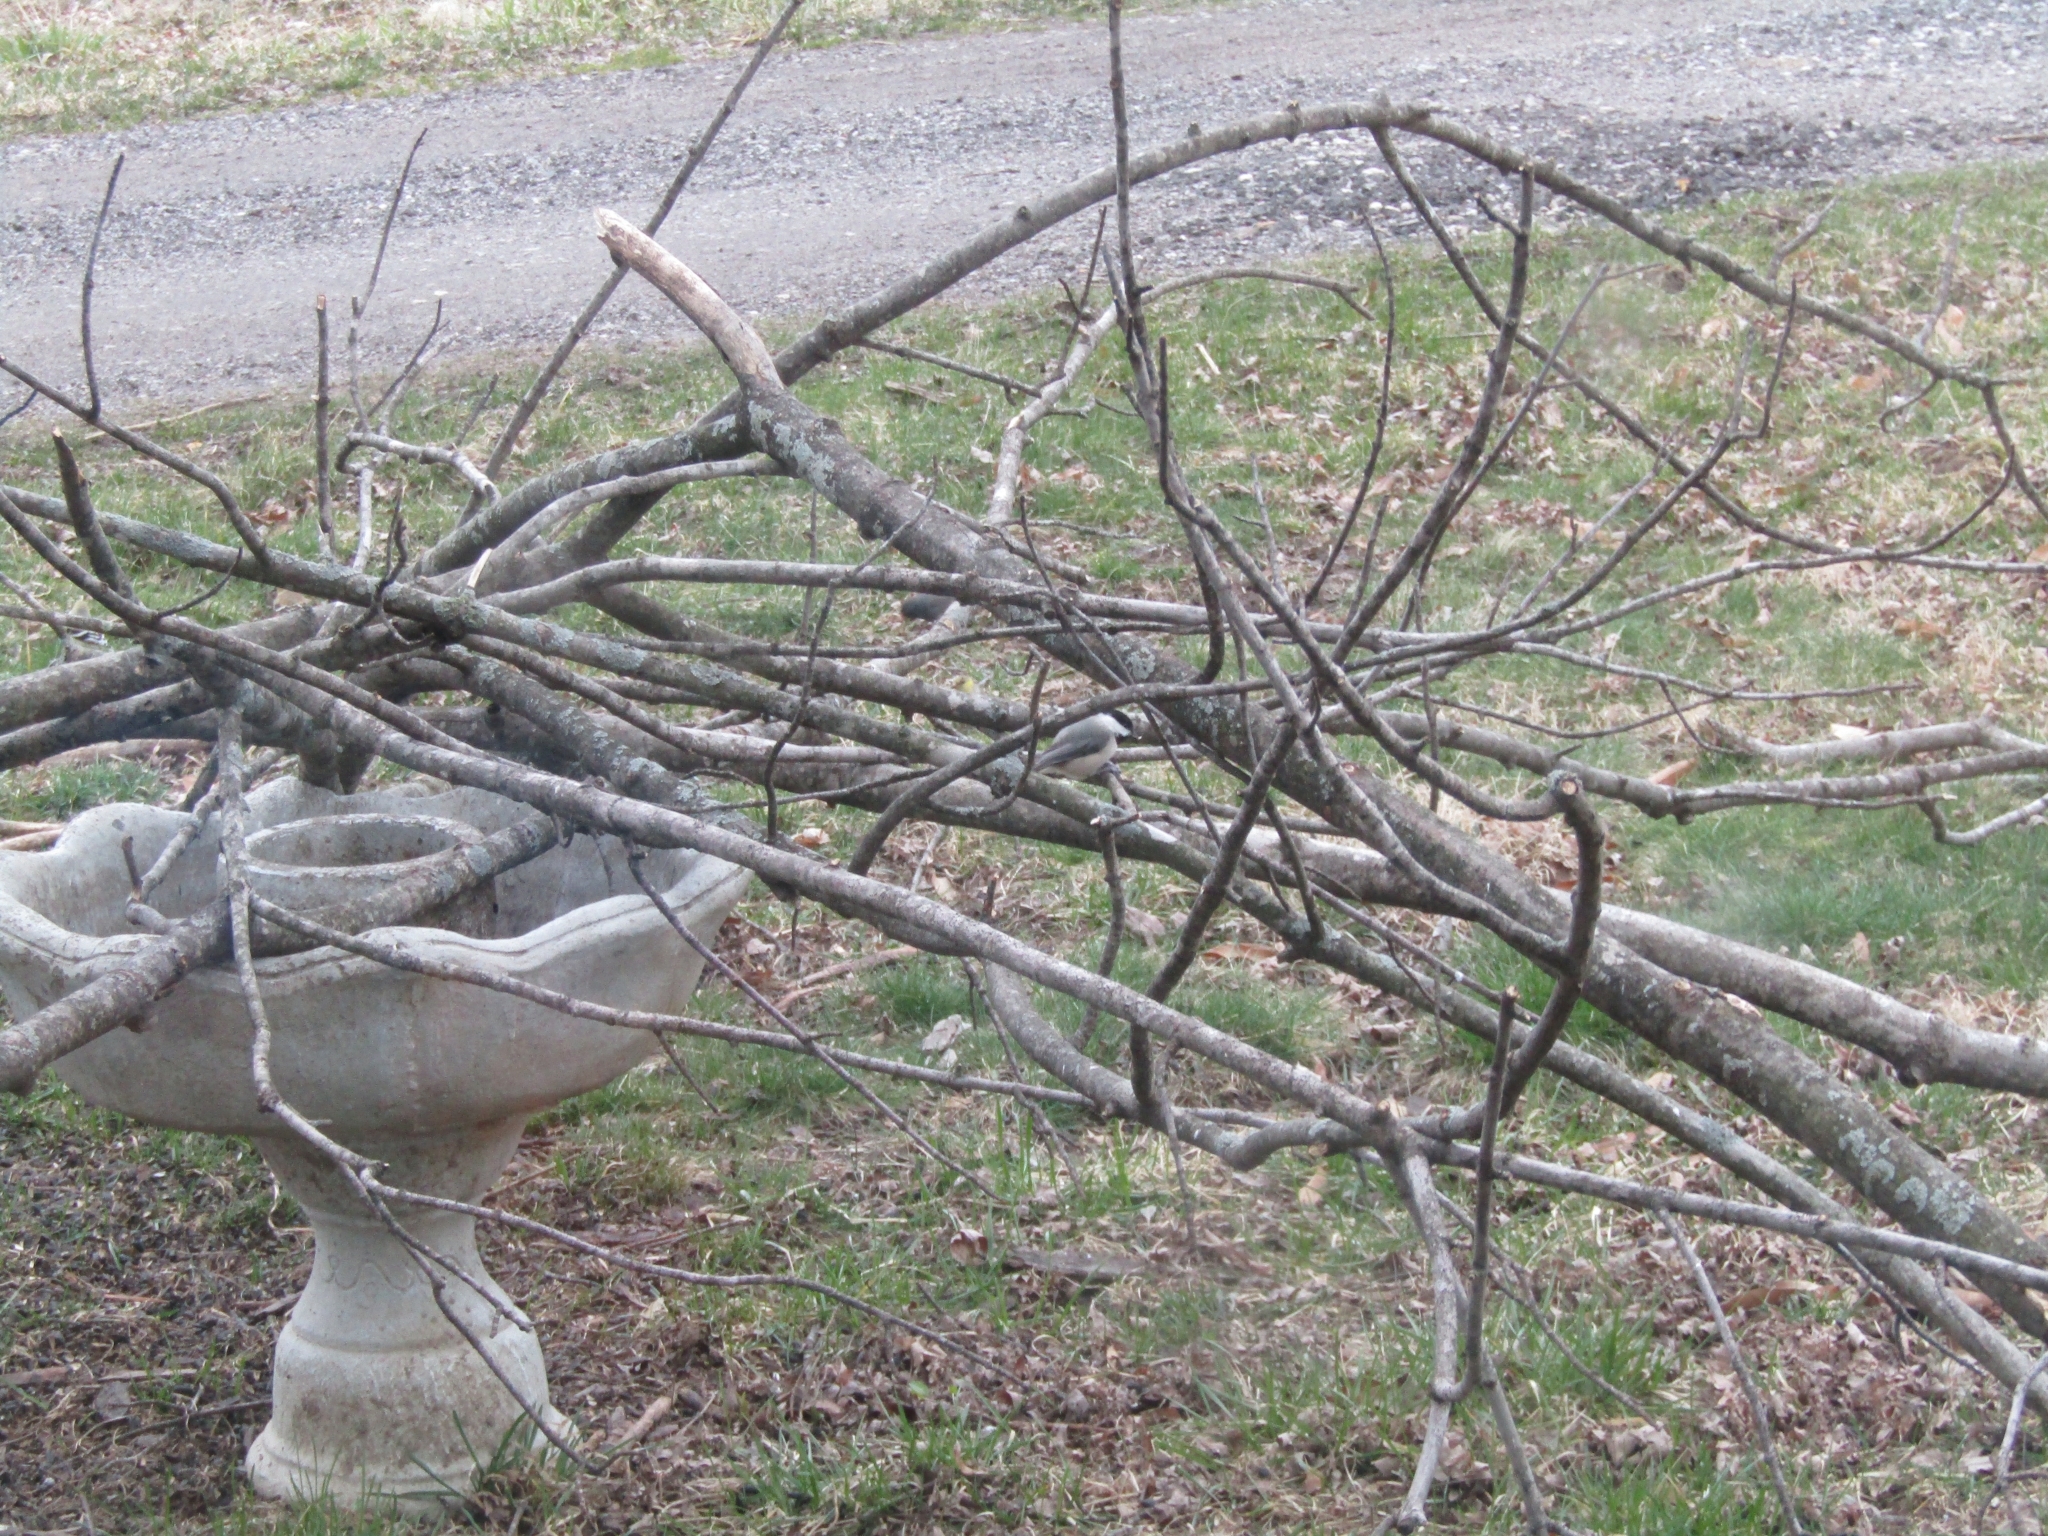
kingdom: Animalia
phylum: Chordata
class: Aves
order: Passeriformes
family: Paridae
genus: Poecile
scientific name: Poecile carolinensis
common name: Carolina chickadee
